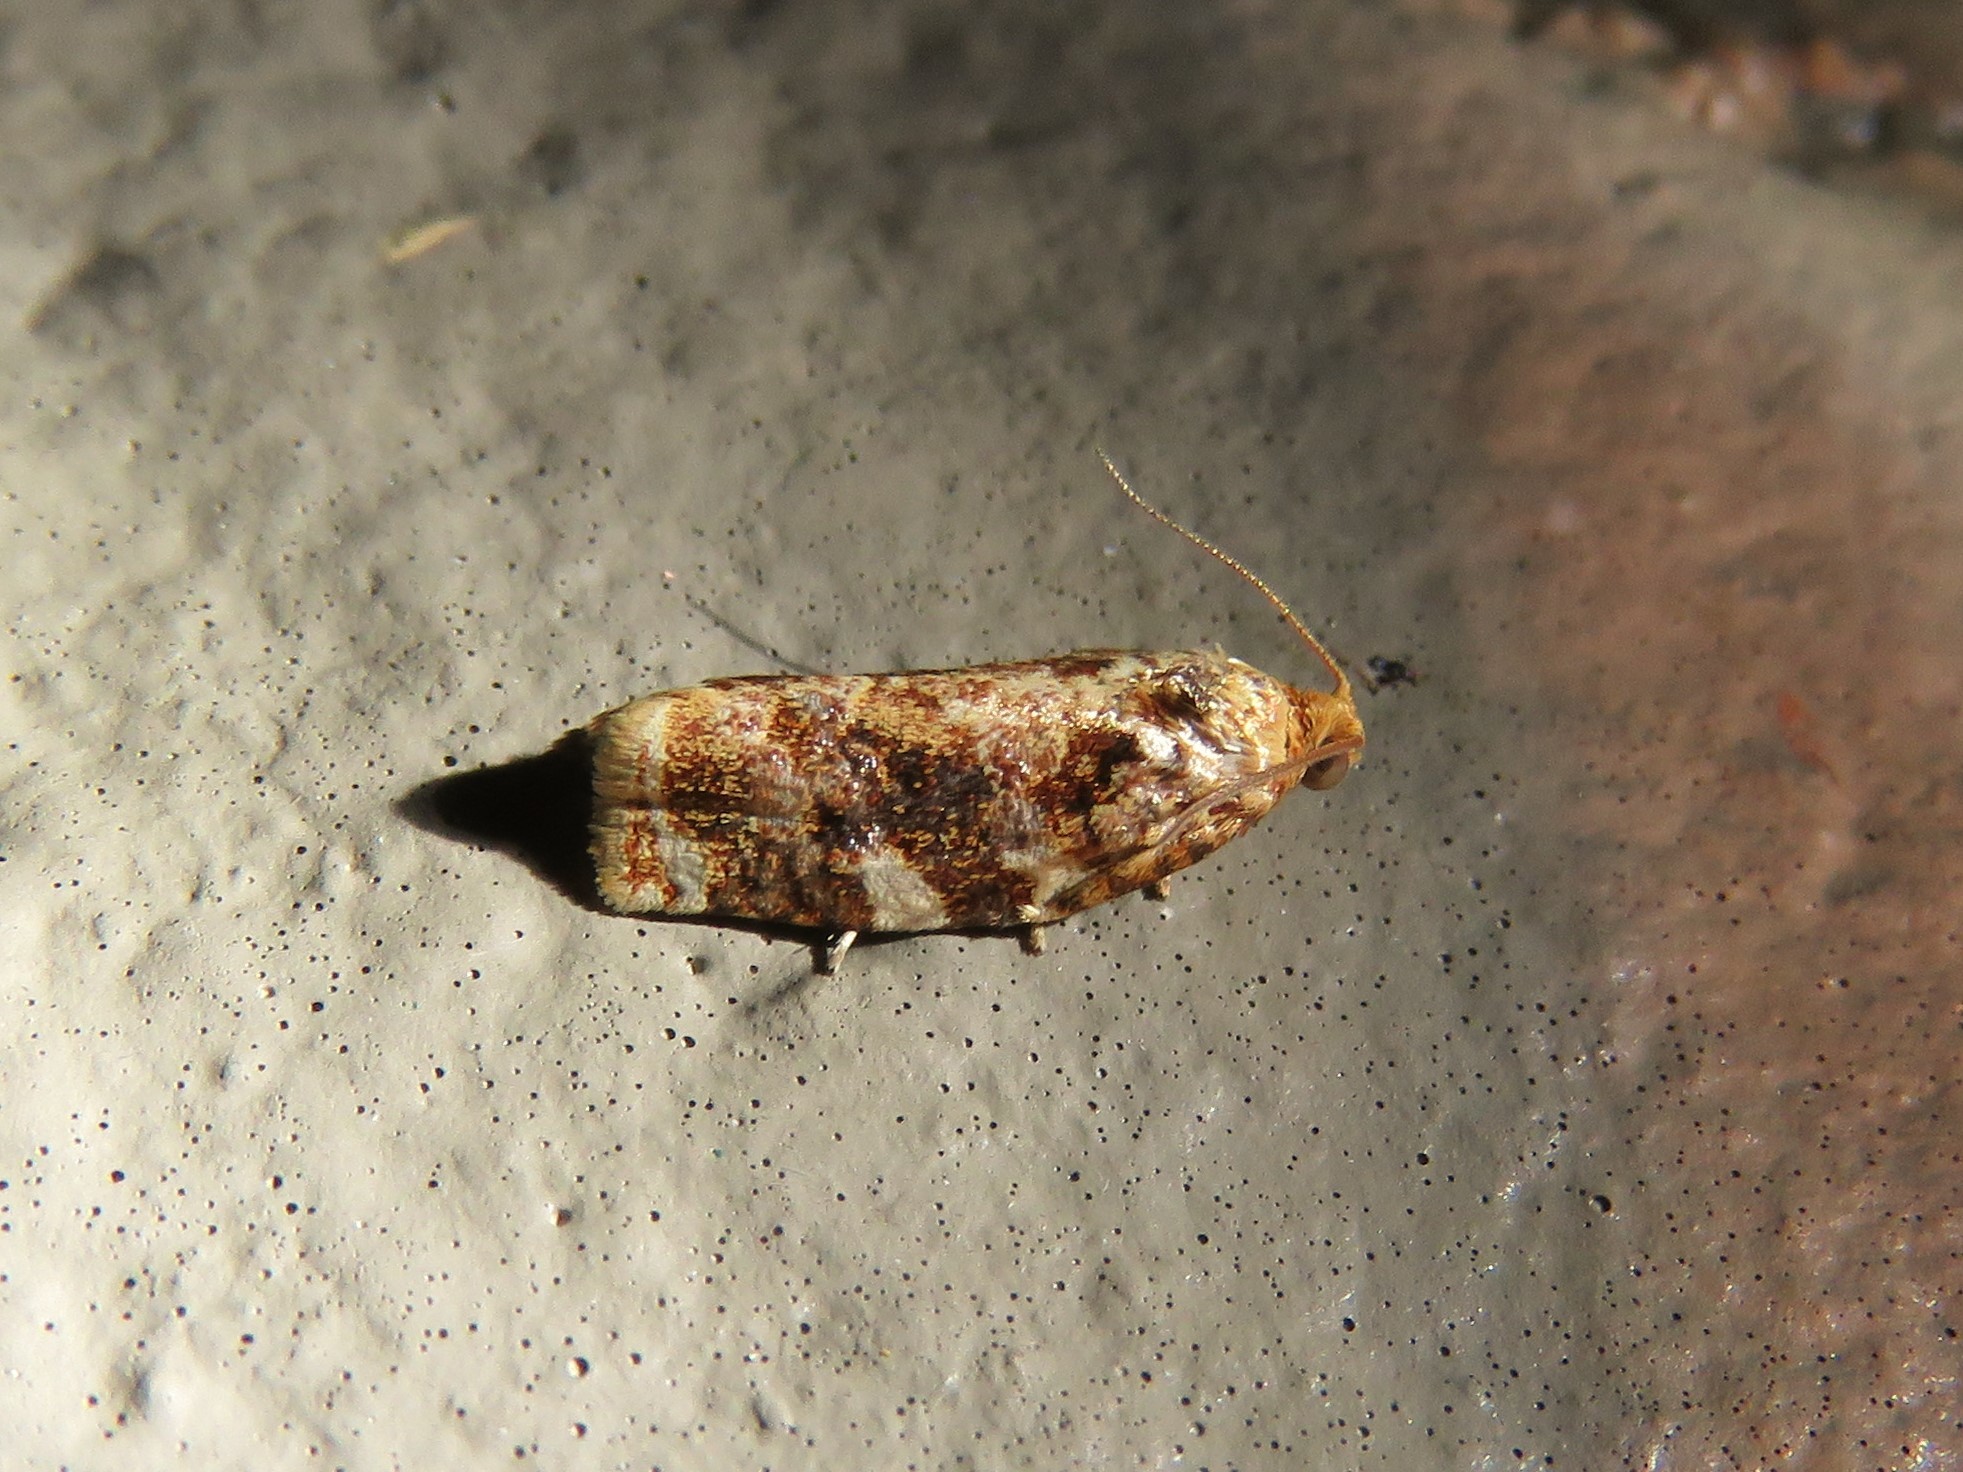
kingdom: Animalia
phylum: Arthropoda
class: Insecta
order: Lepidoptera
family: Tortricidae
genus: Archips
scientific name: Archips argyrospila
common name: Fruit-tree leafroller moth
